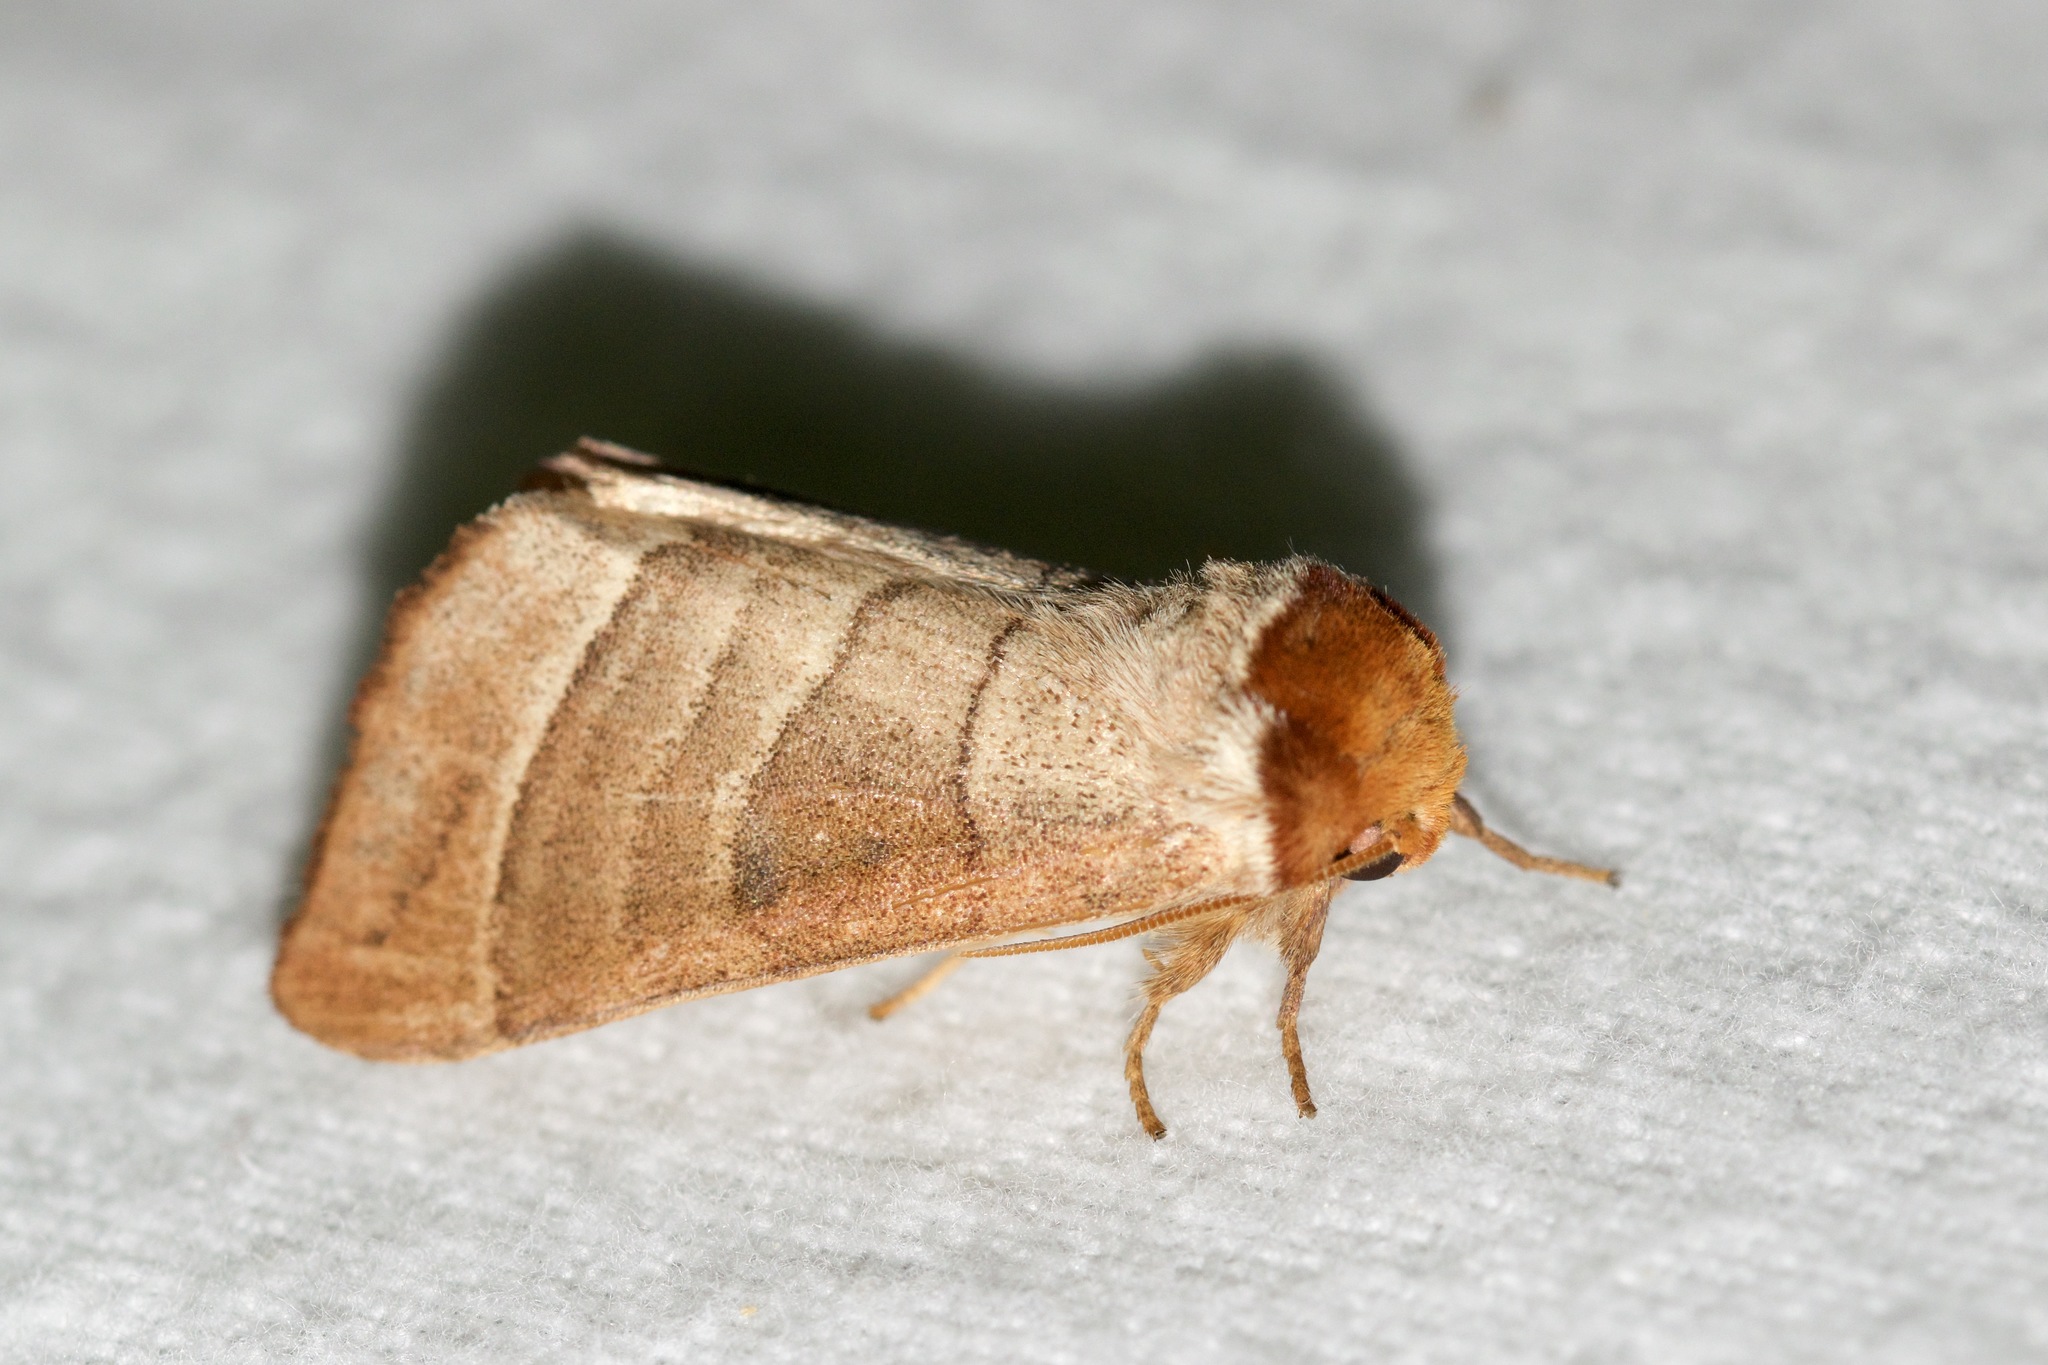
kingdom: Animalia
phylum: Arthropoda
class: Insecta
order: Lepidoptera
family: Notodontidae
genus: Datana
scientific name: Datana integerrima
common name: Walnut caterpillar
